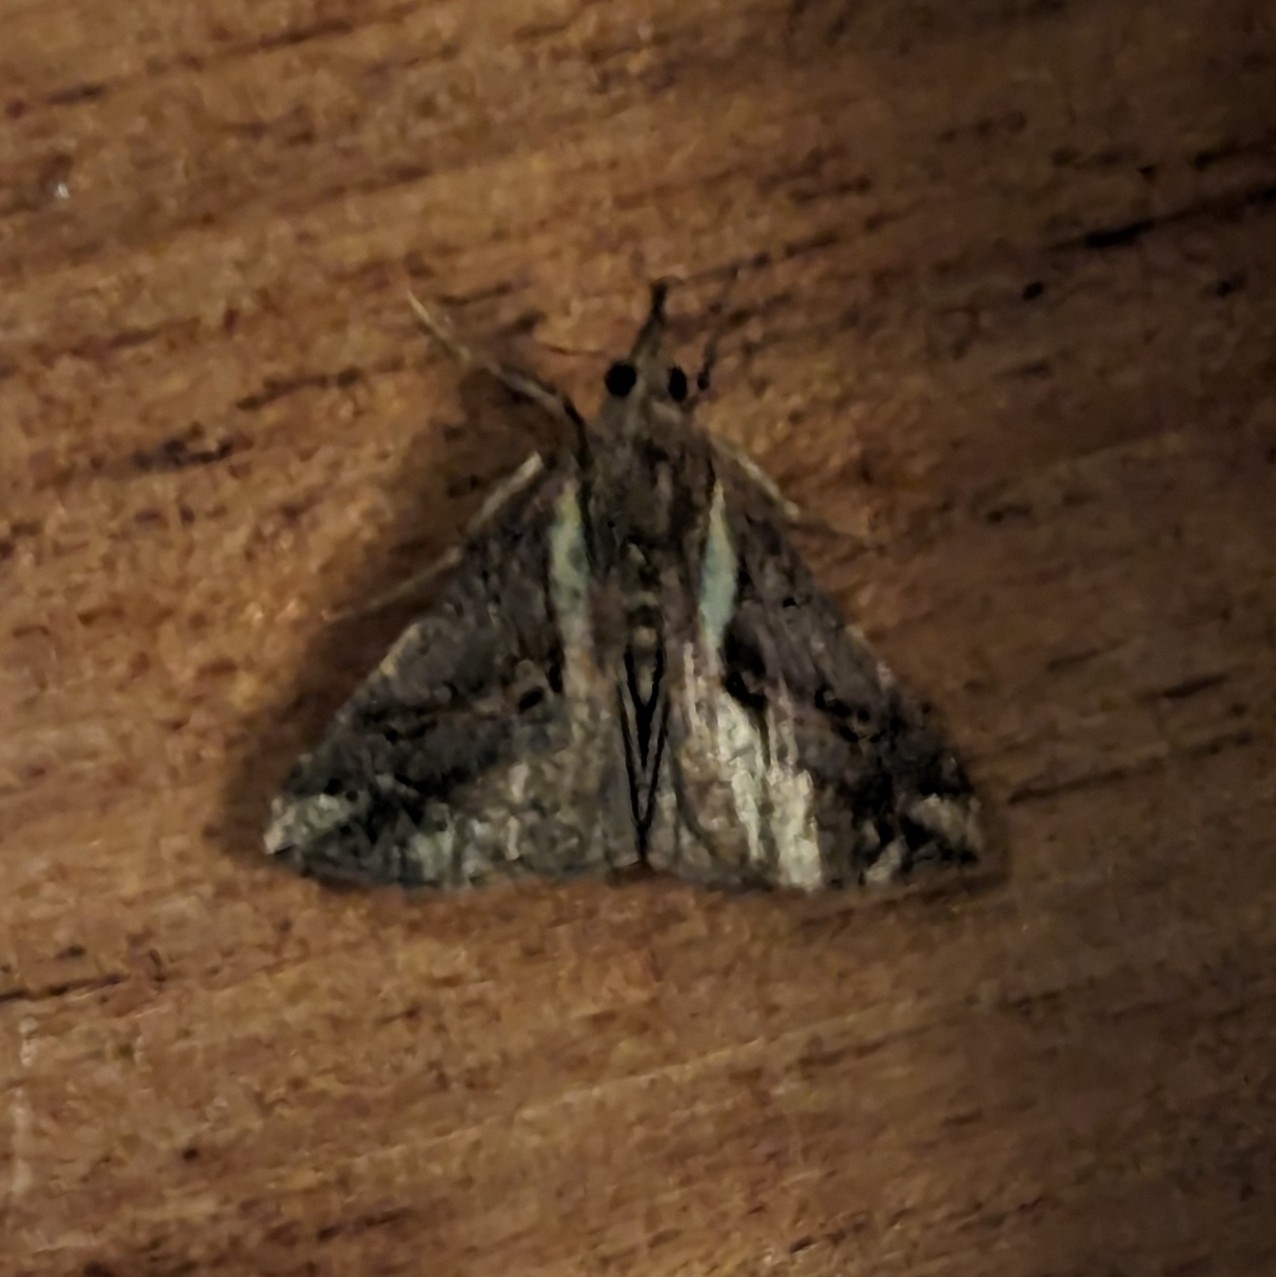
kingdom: Animalia
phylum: Arthropoda
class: Insecta
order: Lepidoptera
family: Erebidae
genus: Hypena
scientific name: Hypena varialis
